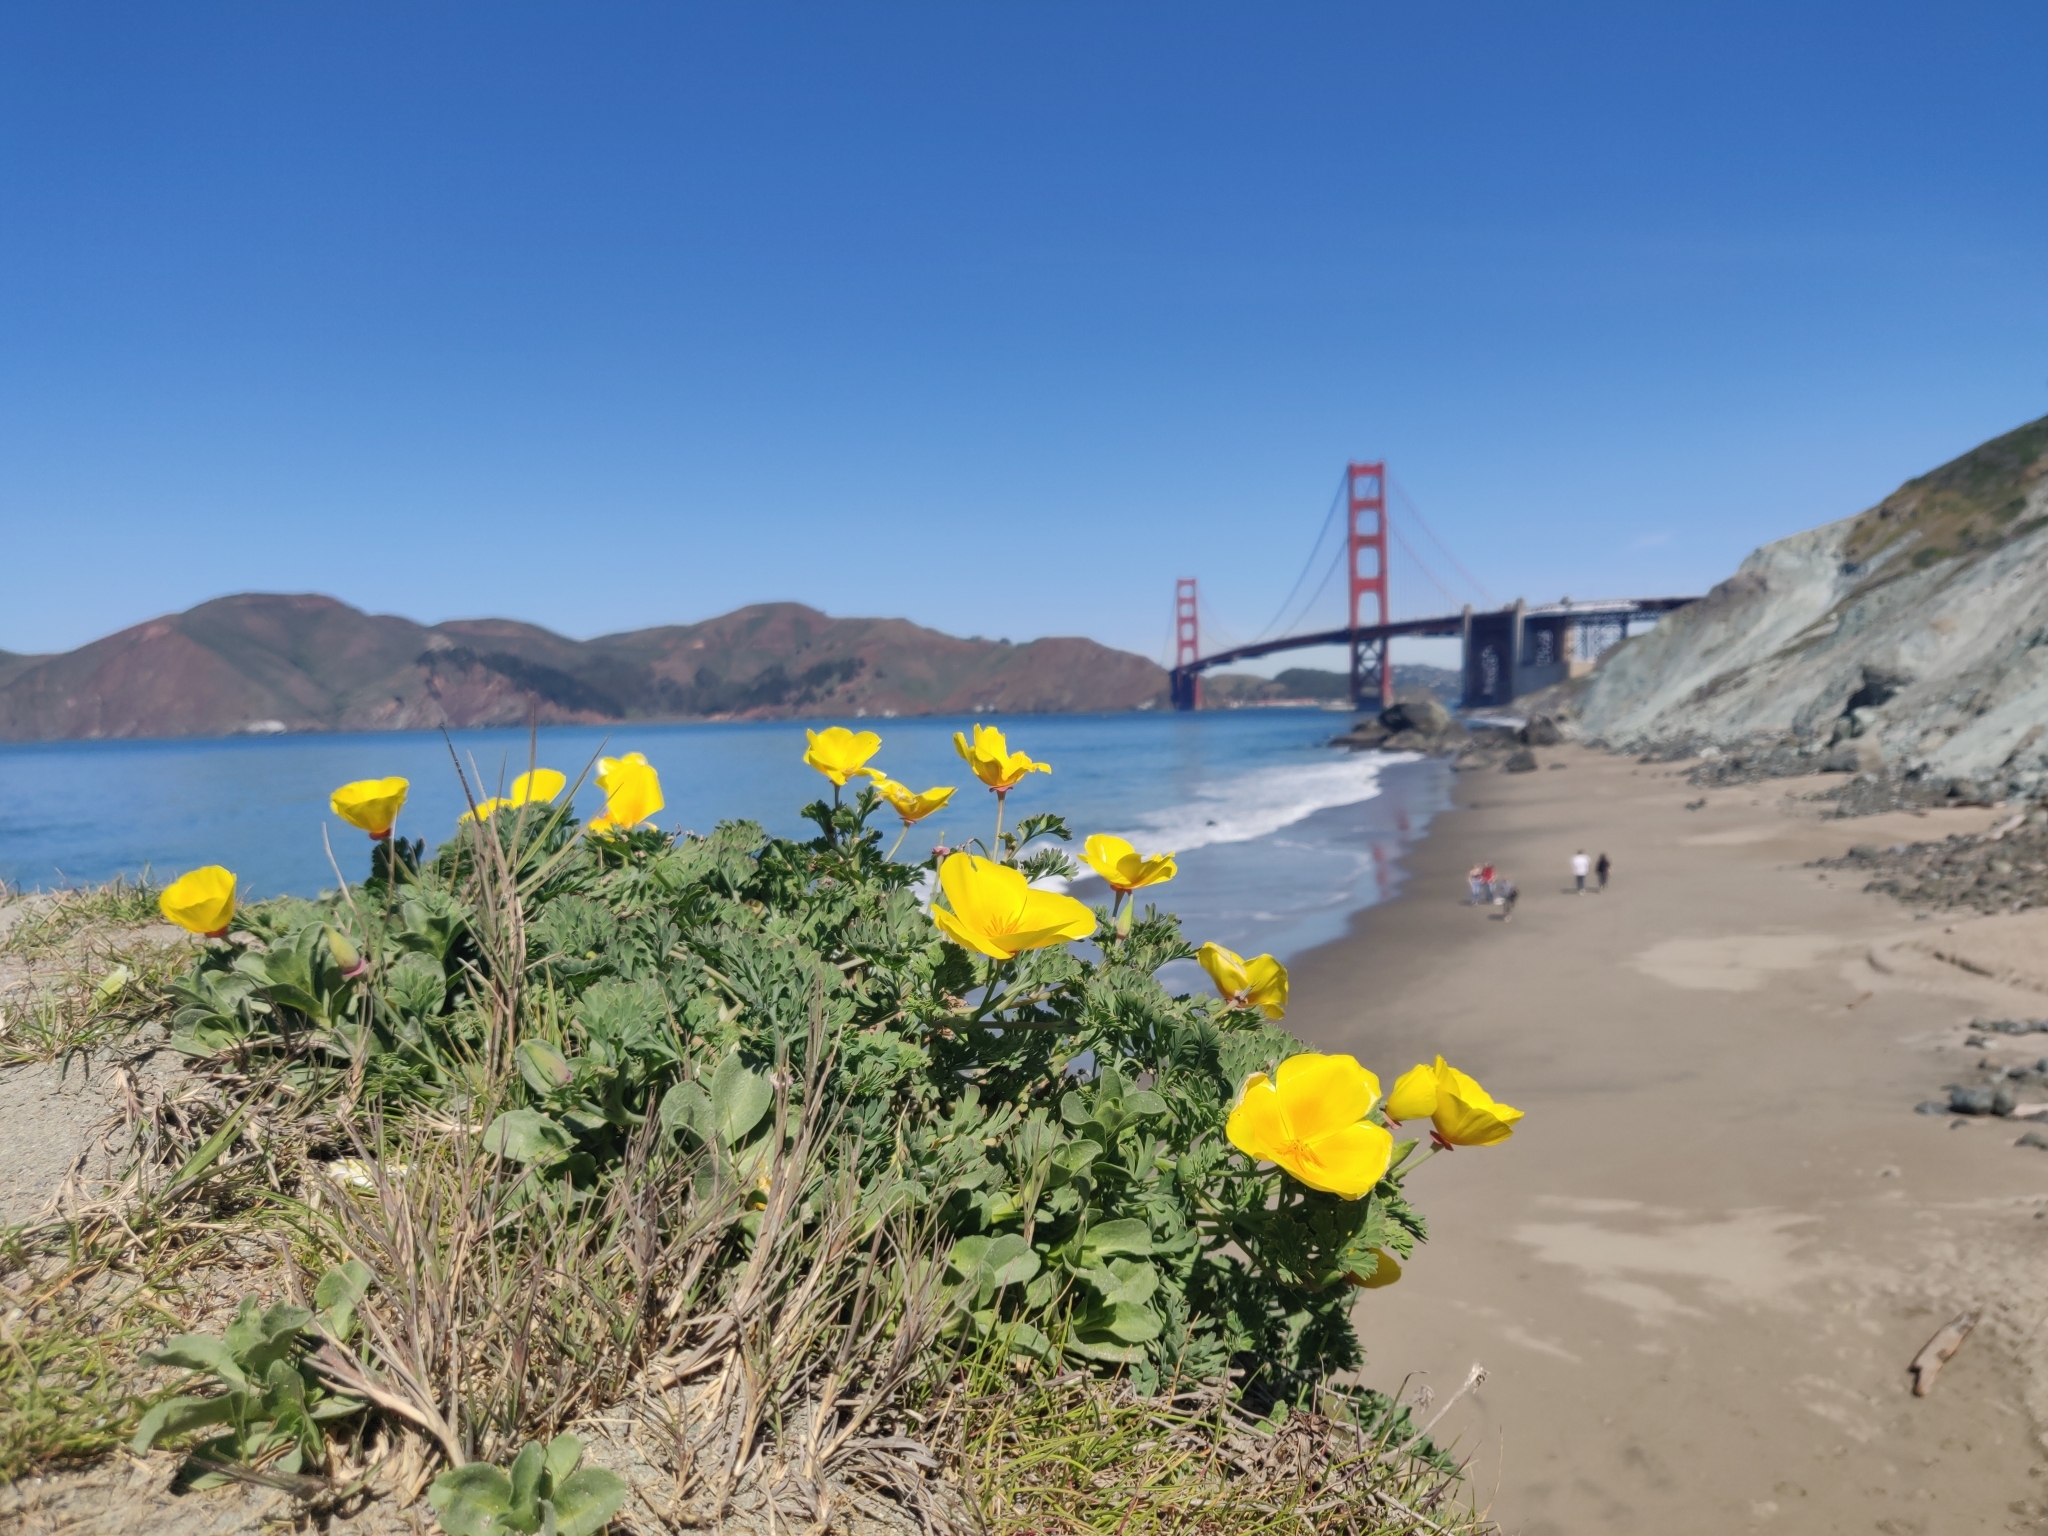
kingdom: Plantae
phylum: Tracheophyta
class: Magnoliopsida
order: Ranunculales
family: Papaveraceae
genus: Eschscholzia
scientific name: Eschscholzia californica
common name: California poppy
